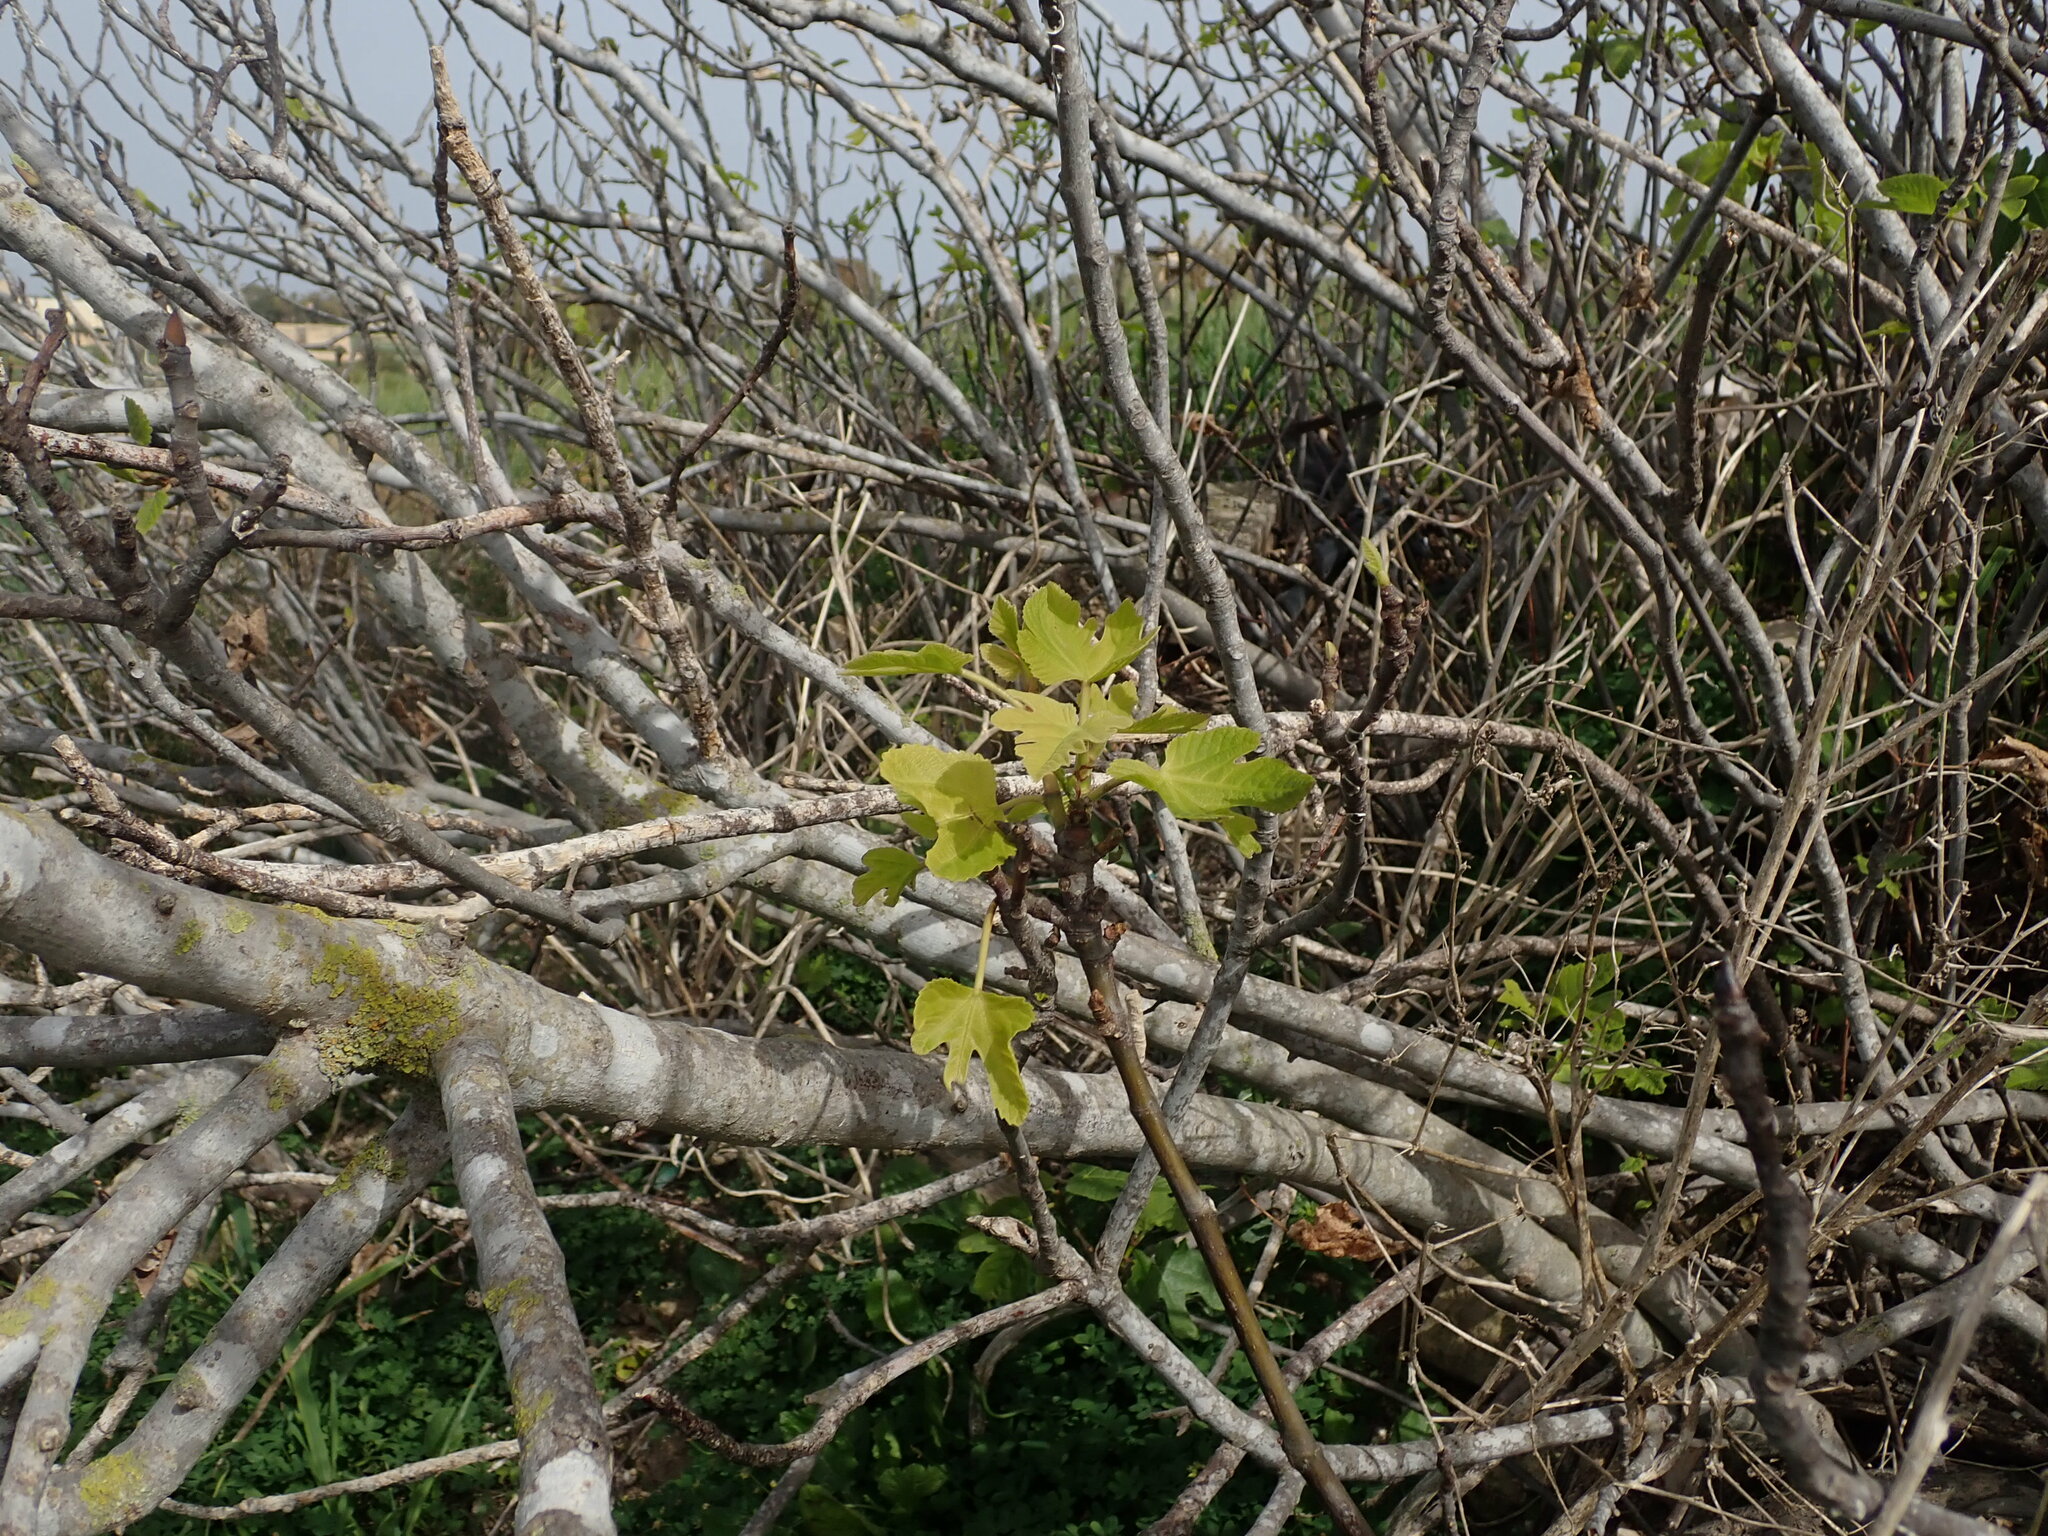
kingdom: Plantae
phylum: Tracheophyta
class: Magnoliopsida
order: Rosales
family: Moraceae
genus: Ficus
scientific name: Ficus carica
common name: Fig
